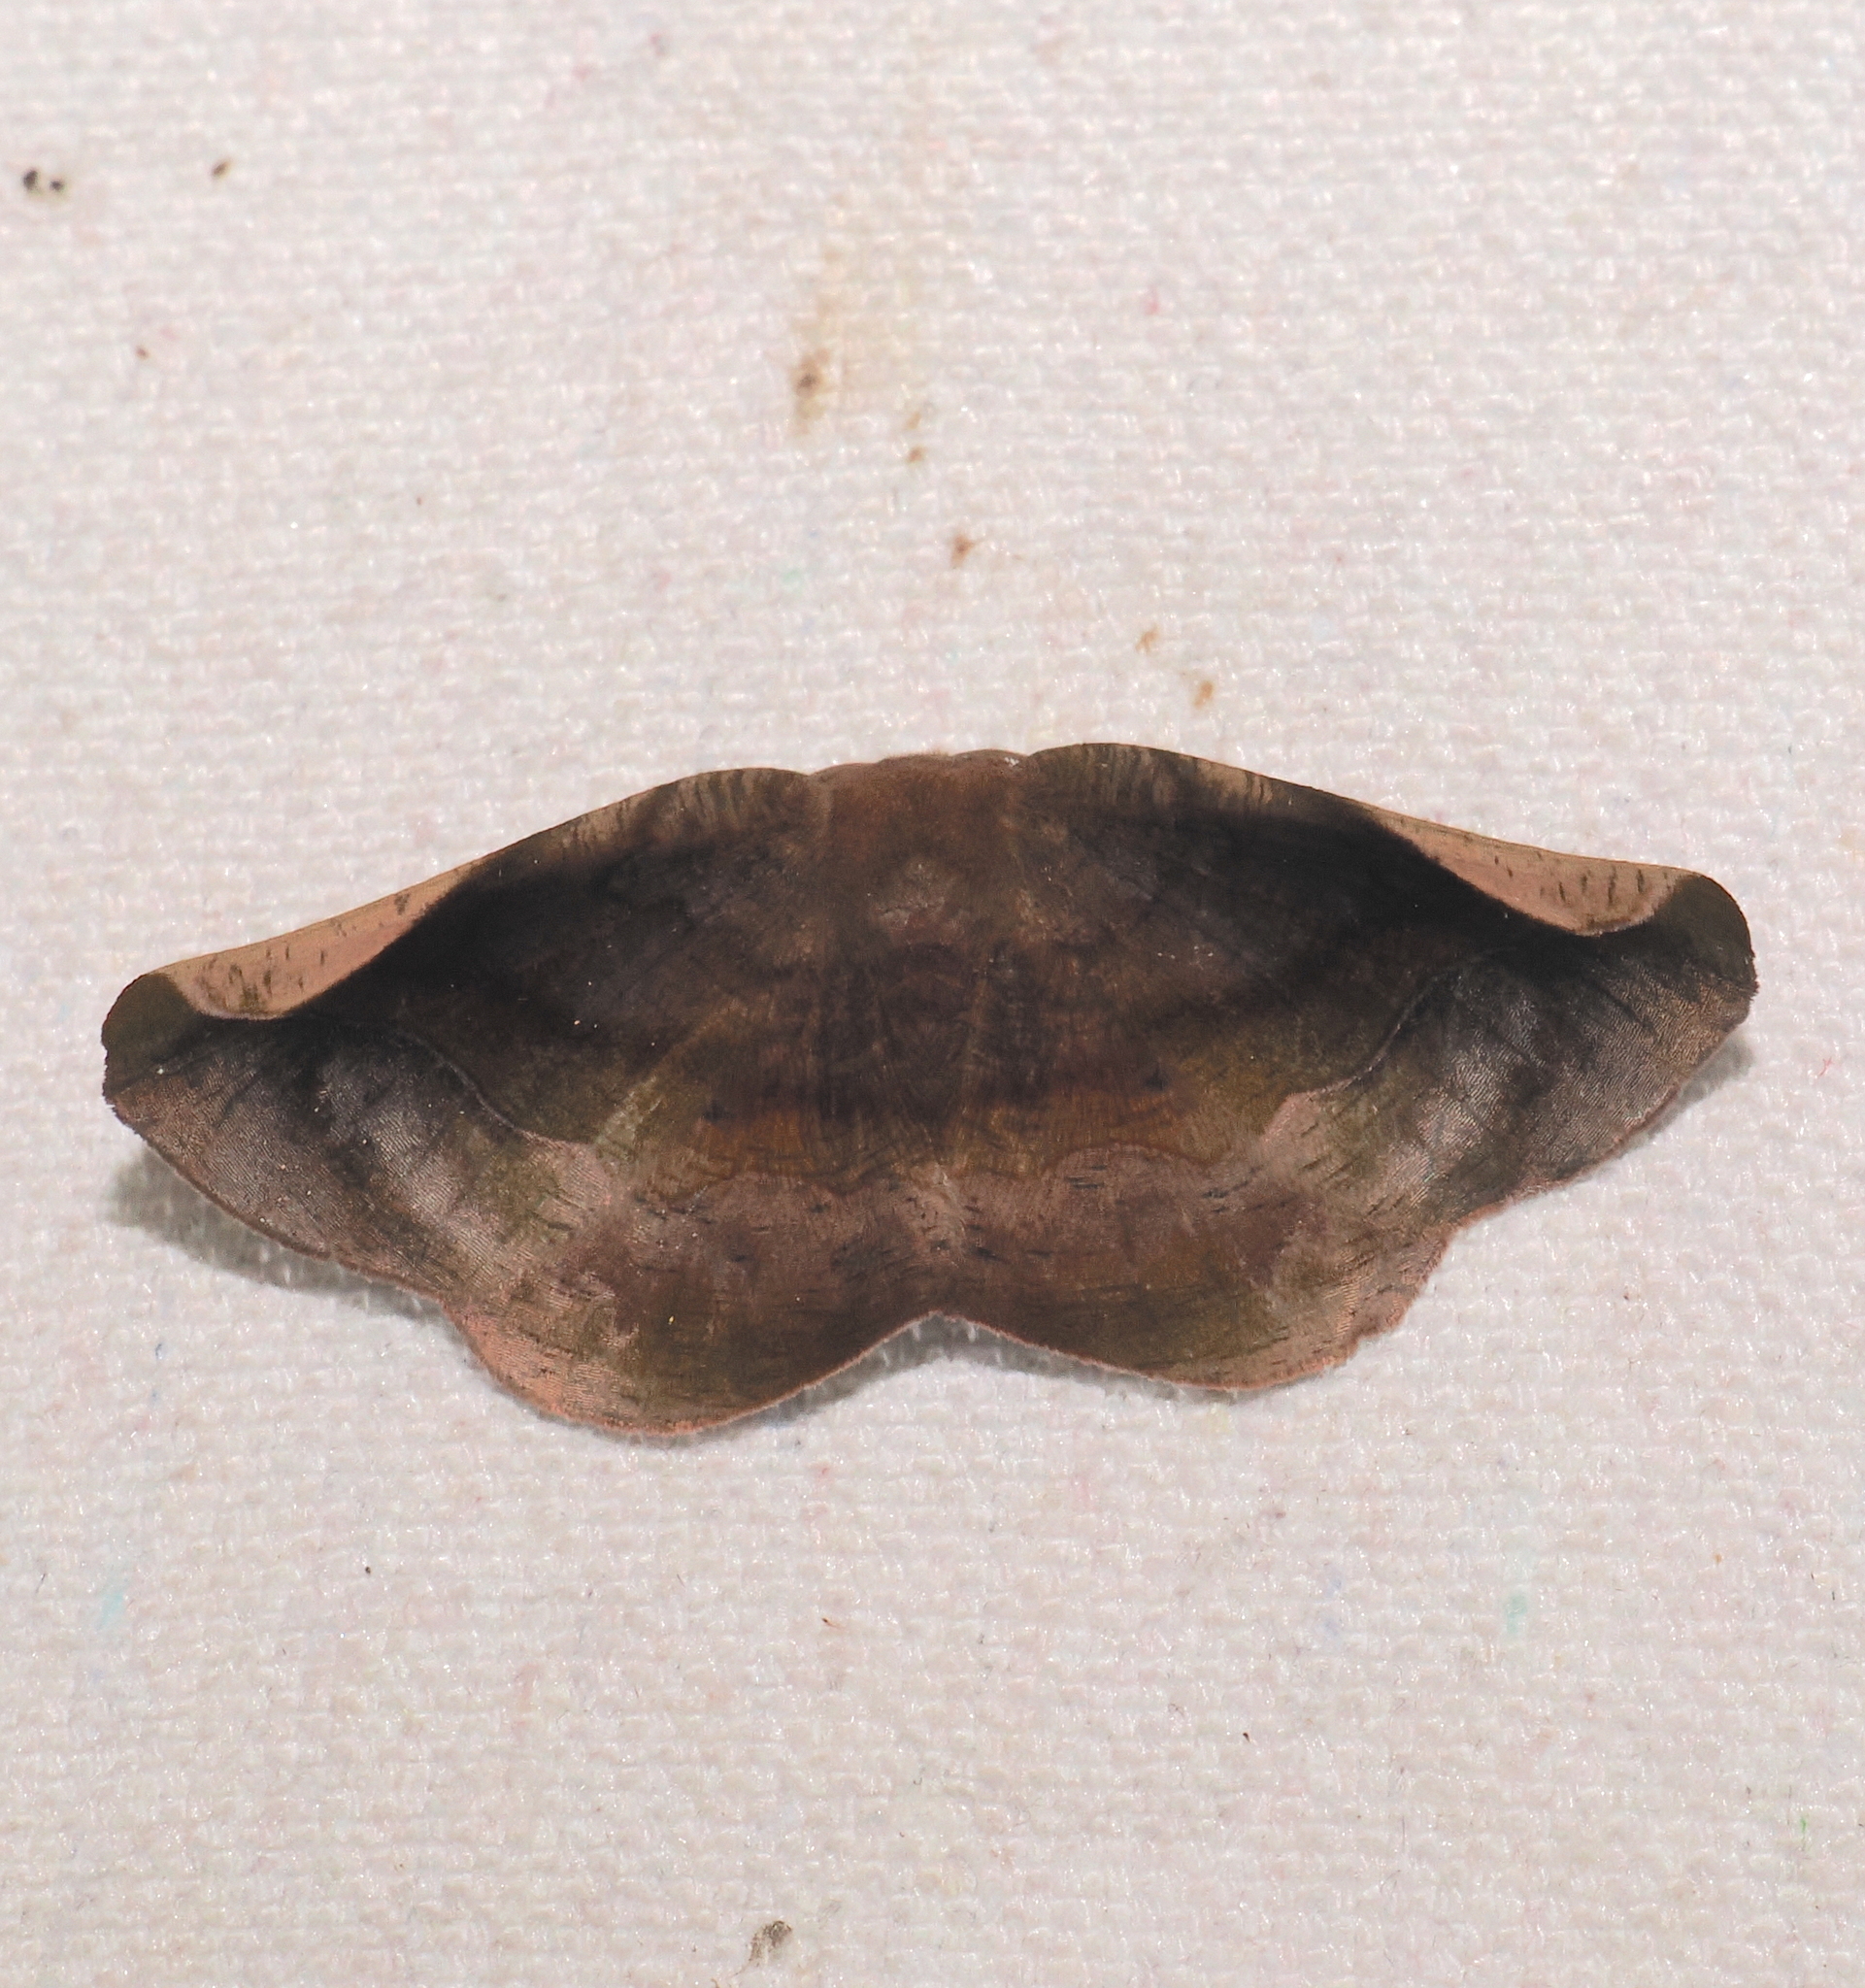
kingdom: Animalia
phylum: Arthropoda
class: Insecta
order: Lepidoptera
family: Geometridae
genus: Hygrochroma
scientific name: Hygrochroma nondina
